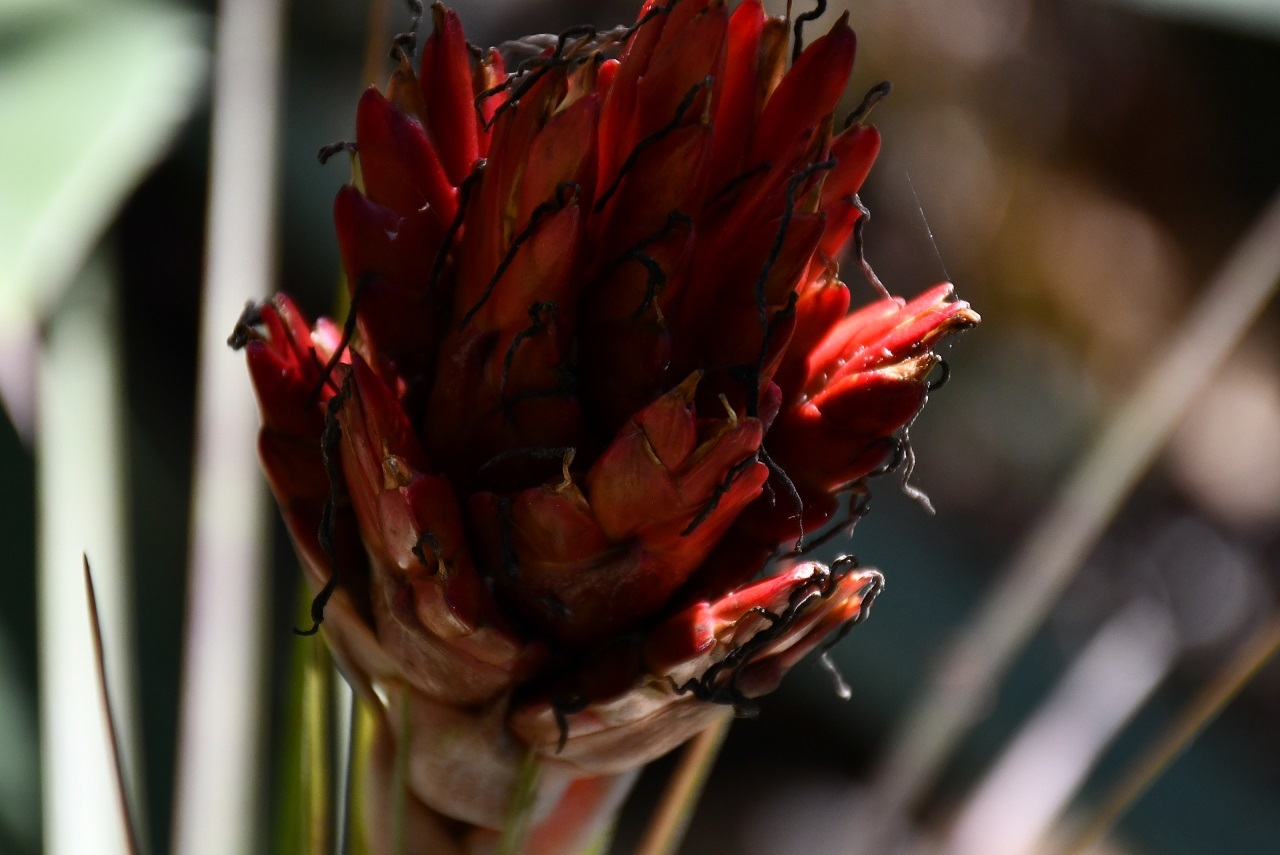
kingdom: Plantae
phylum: Tracheophyta
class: Liliopsida
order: Poales
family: Bromeliaceae
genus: Tillandsia
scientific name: Tillandsia rotundata
